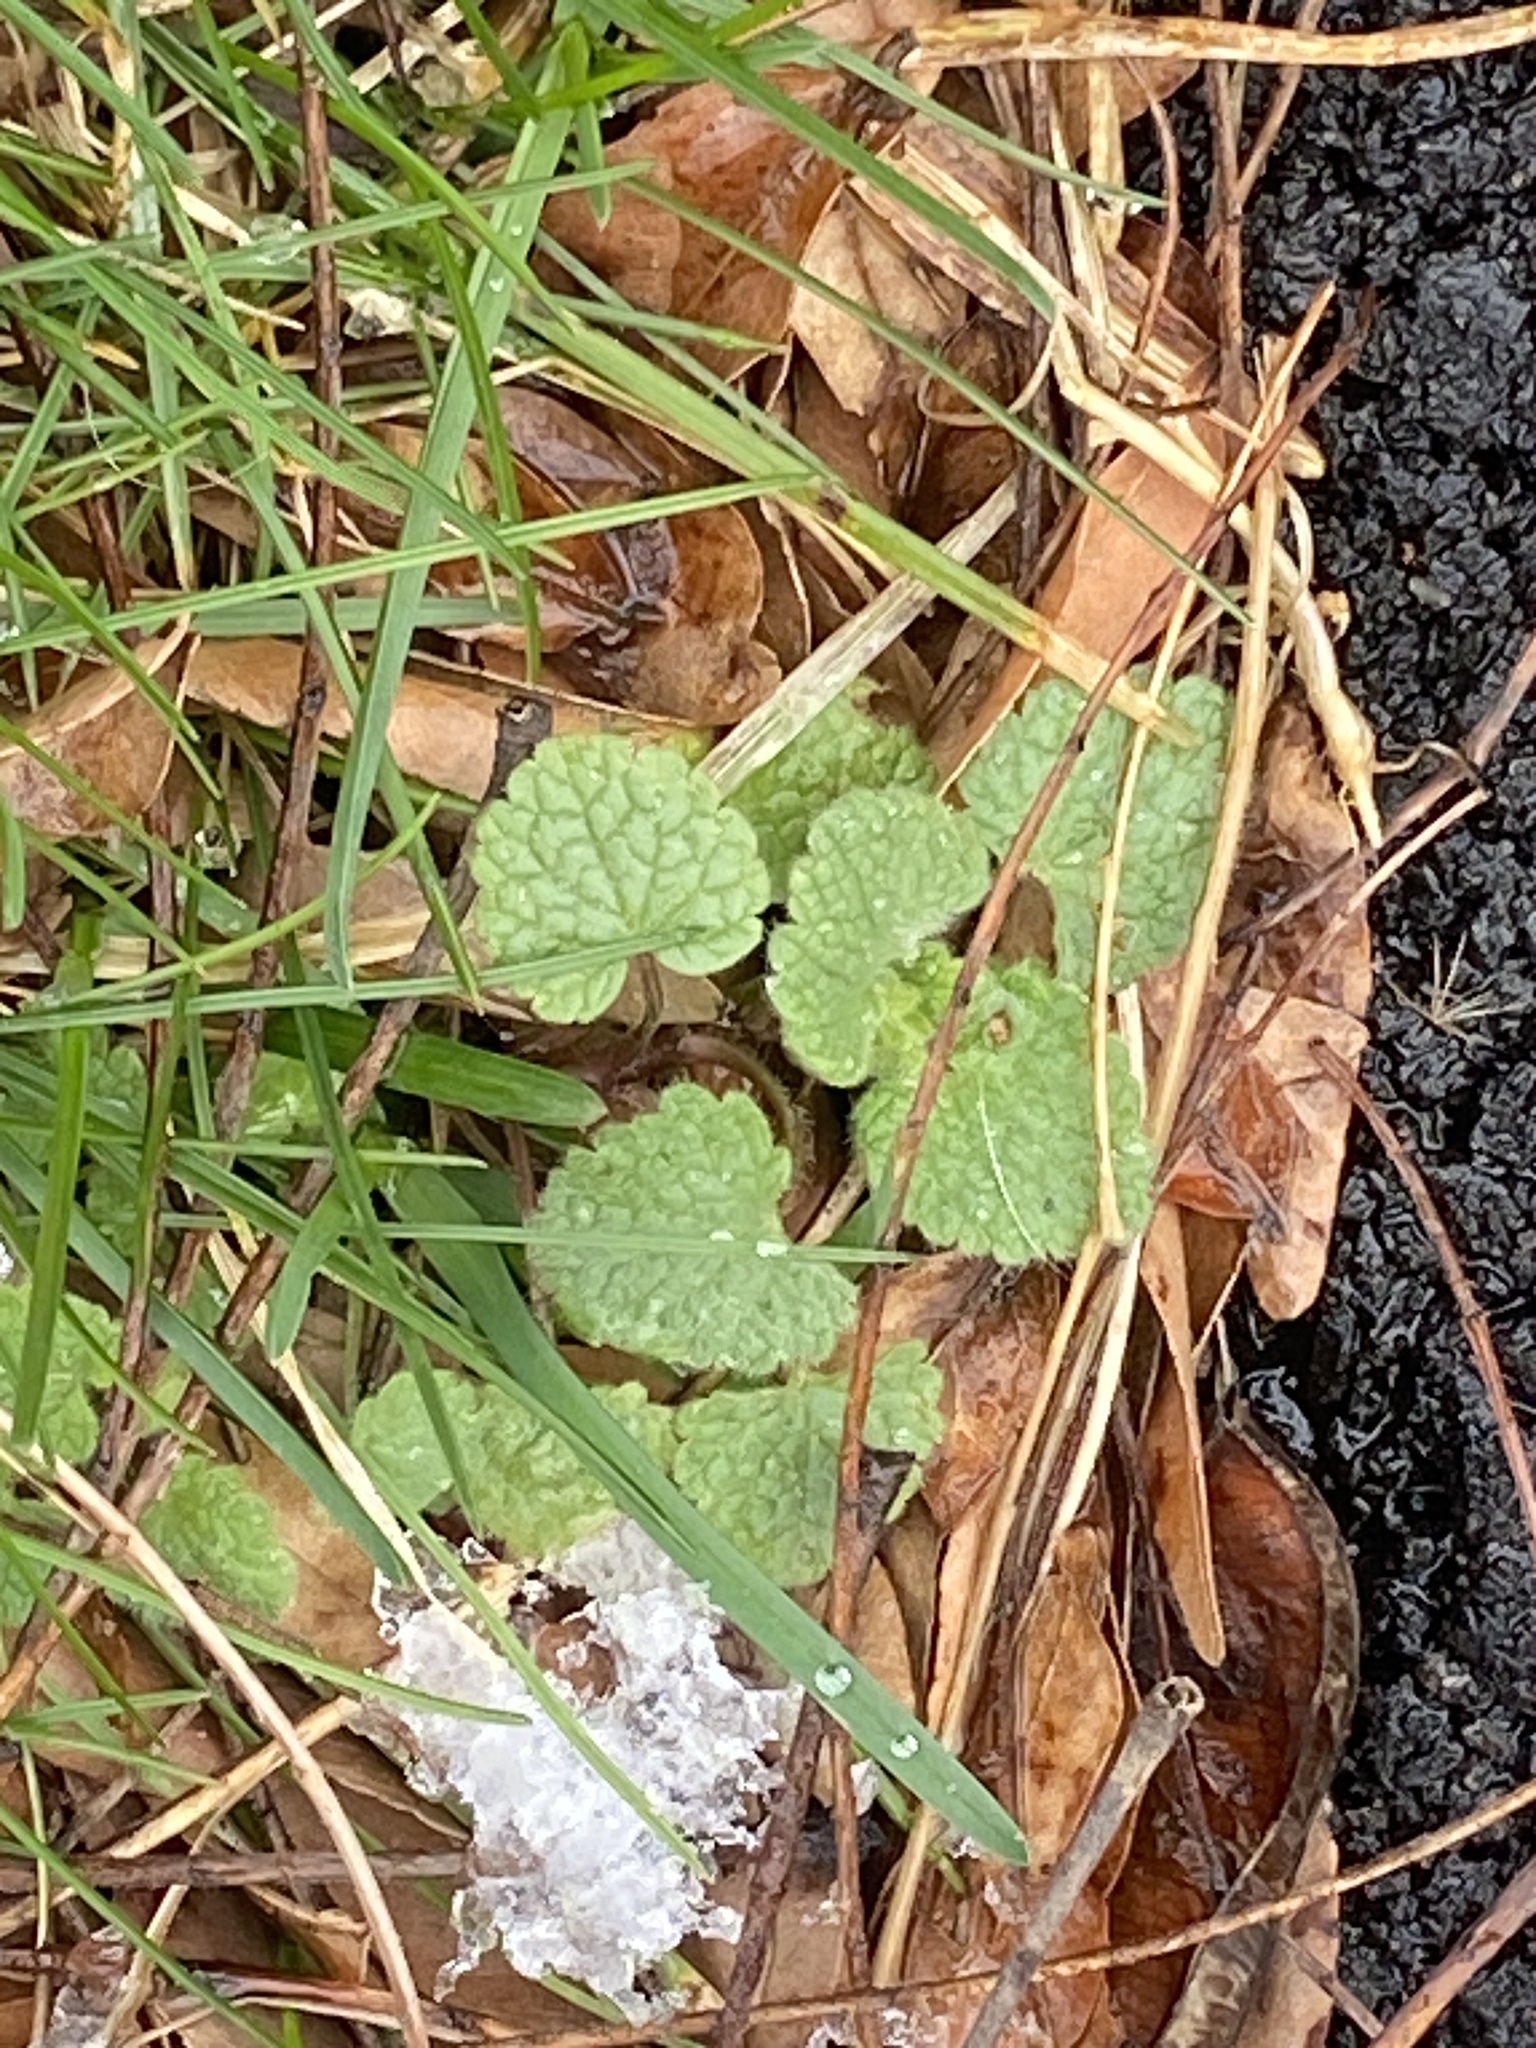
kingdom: Plantae
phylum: Tracheophyta
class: Magnoliopsida
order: Lamiales
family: Lamiaceae
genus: Lamium
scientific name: Lamium purpureum
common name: Red dead-nettle
